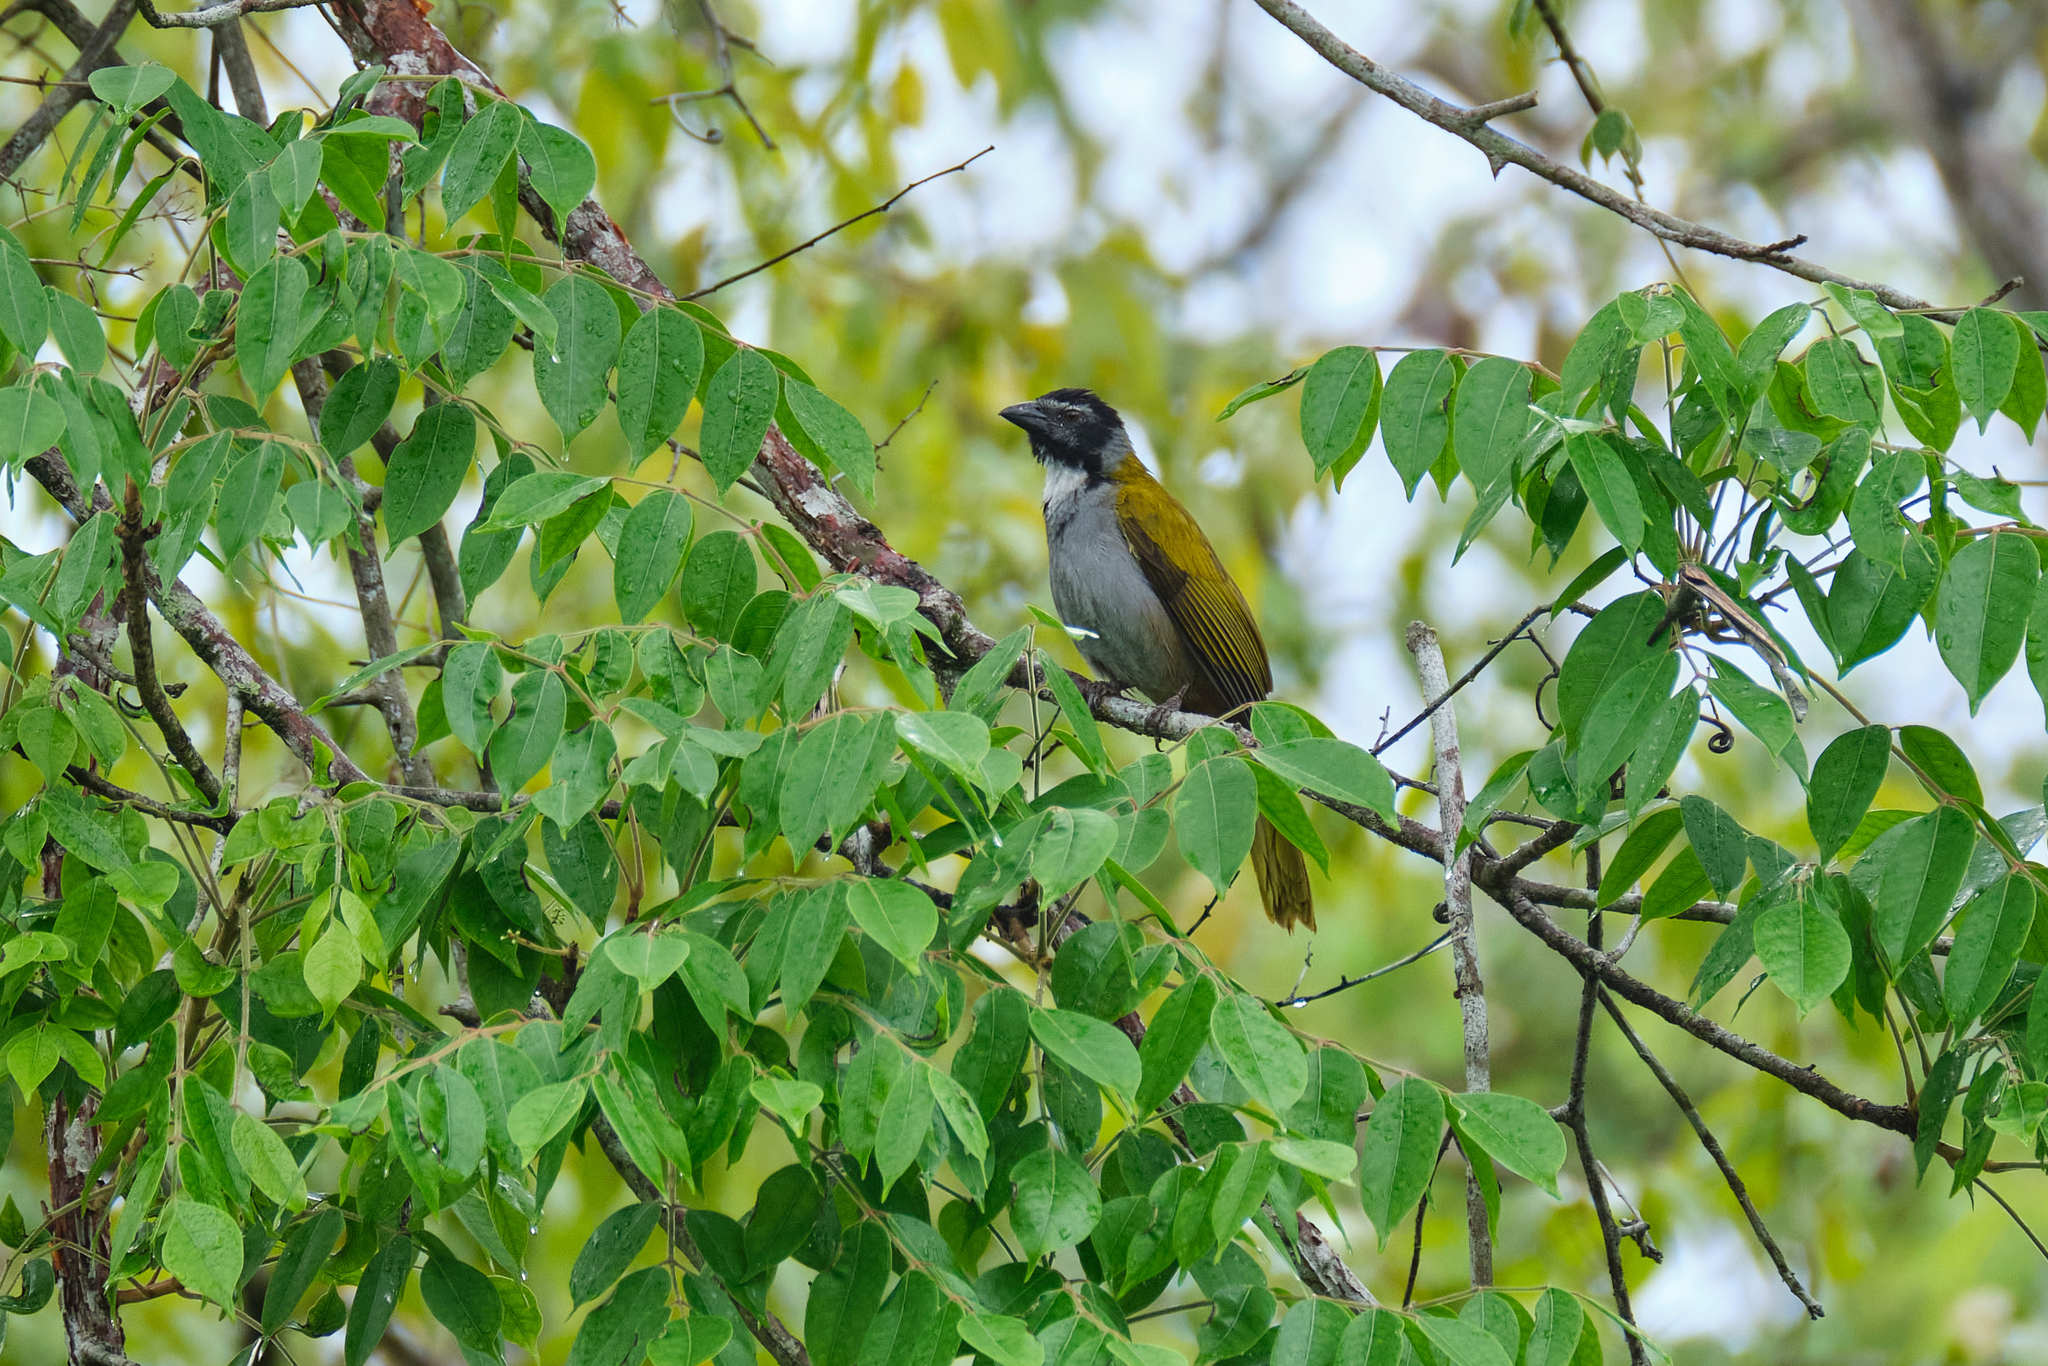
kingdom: Animalia
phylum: Chordata
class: Aves
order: Passeriformes
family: Thraupidae
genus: Saltator
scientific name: Saltator atriceps
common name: Black-headed saltator
